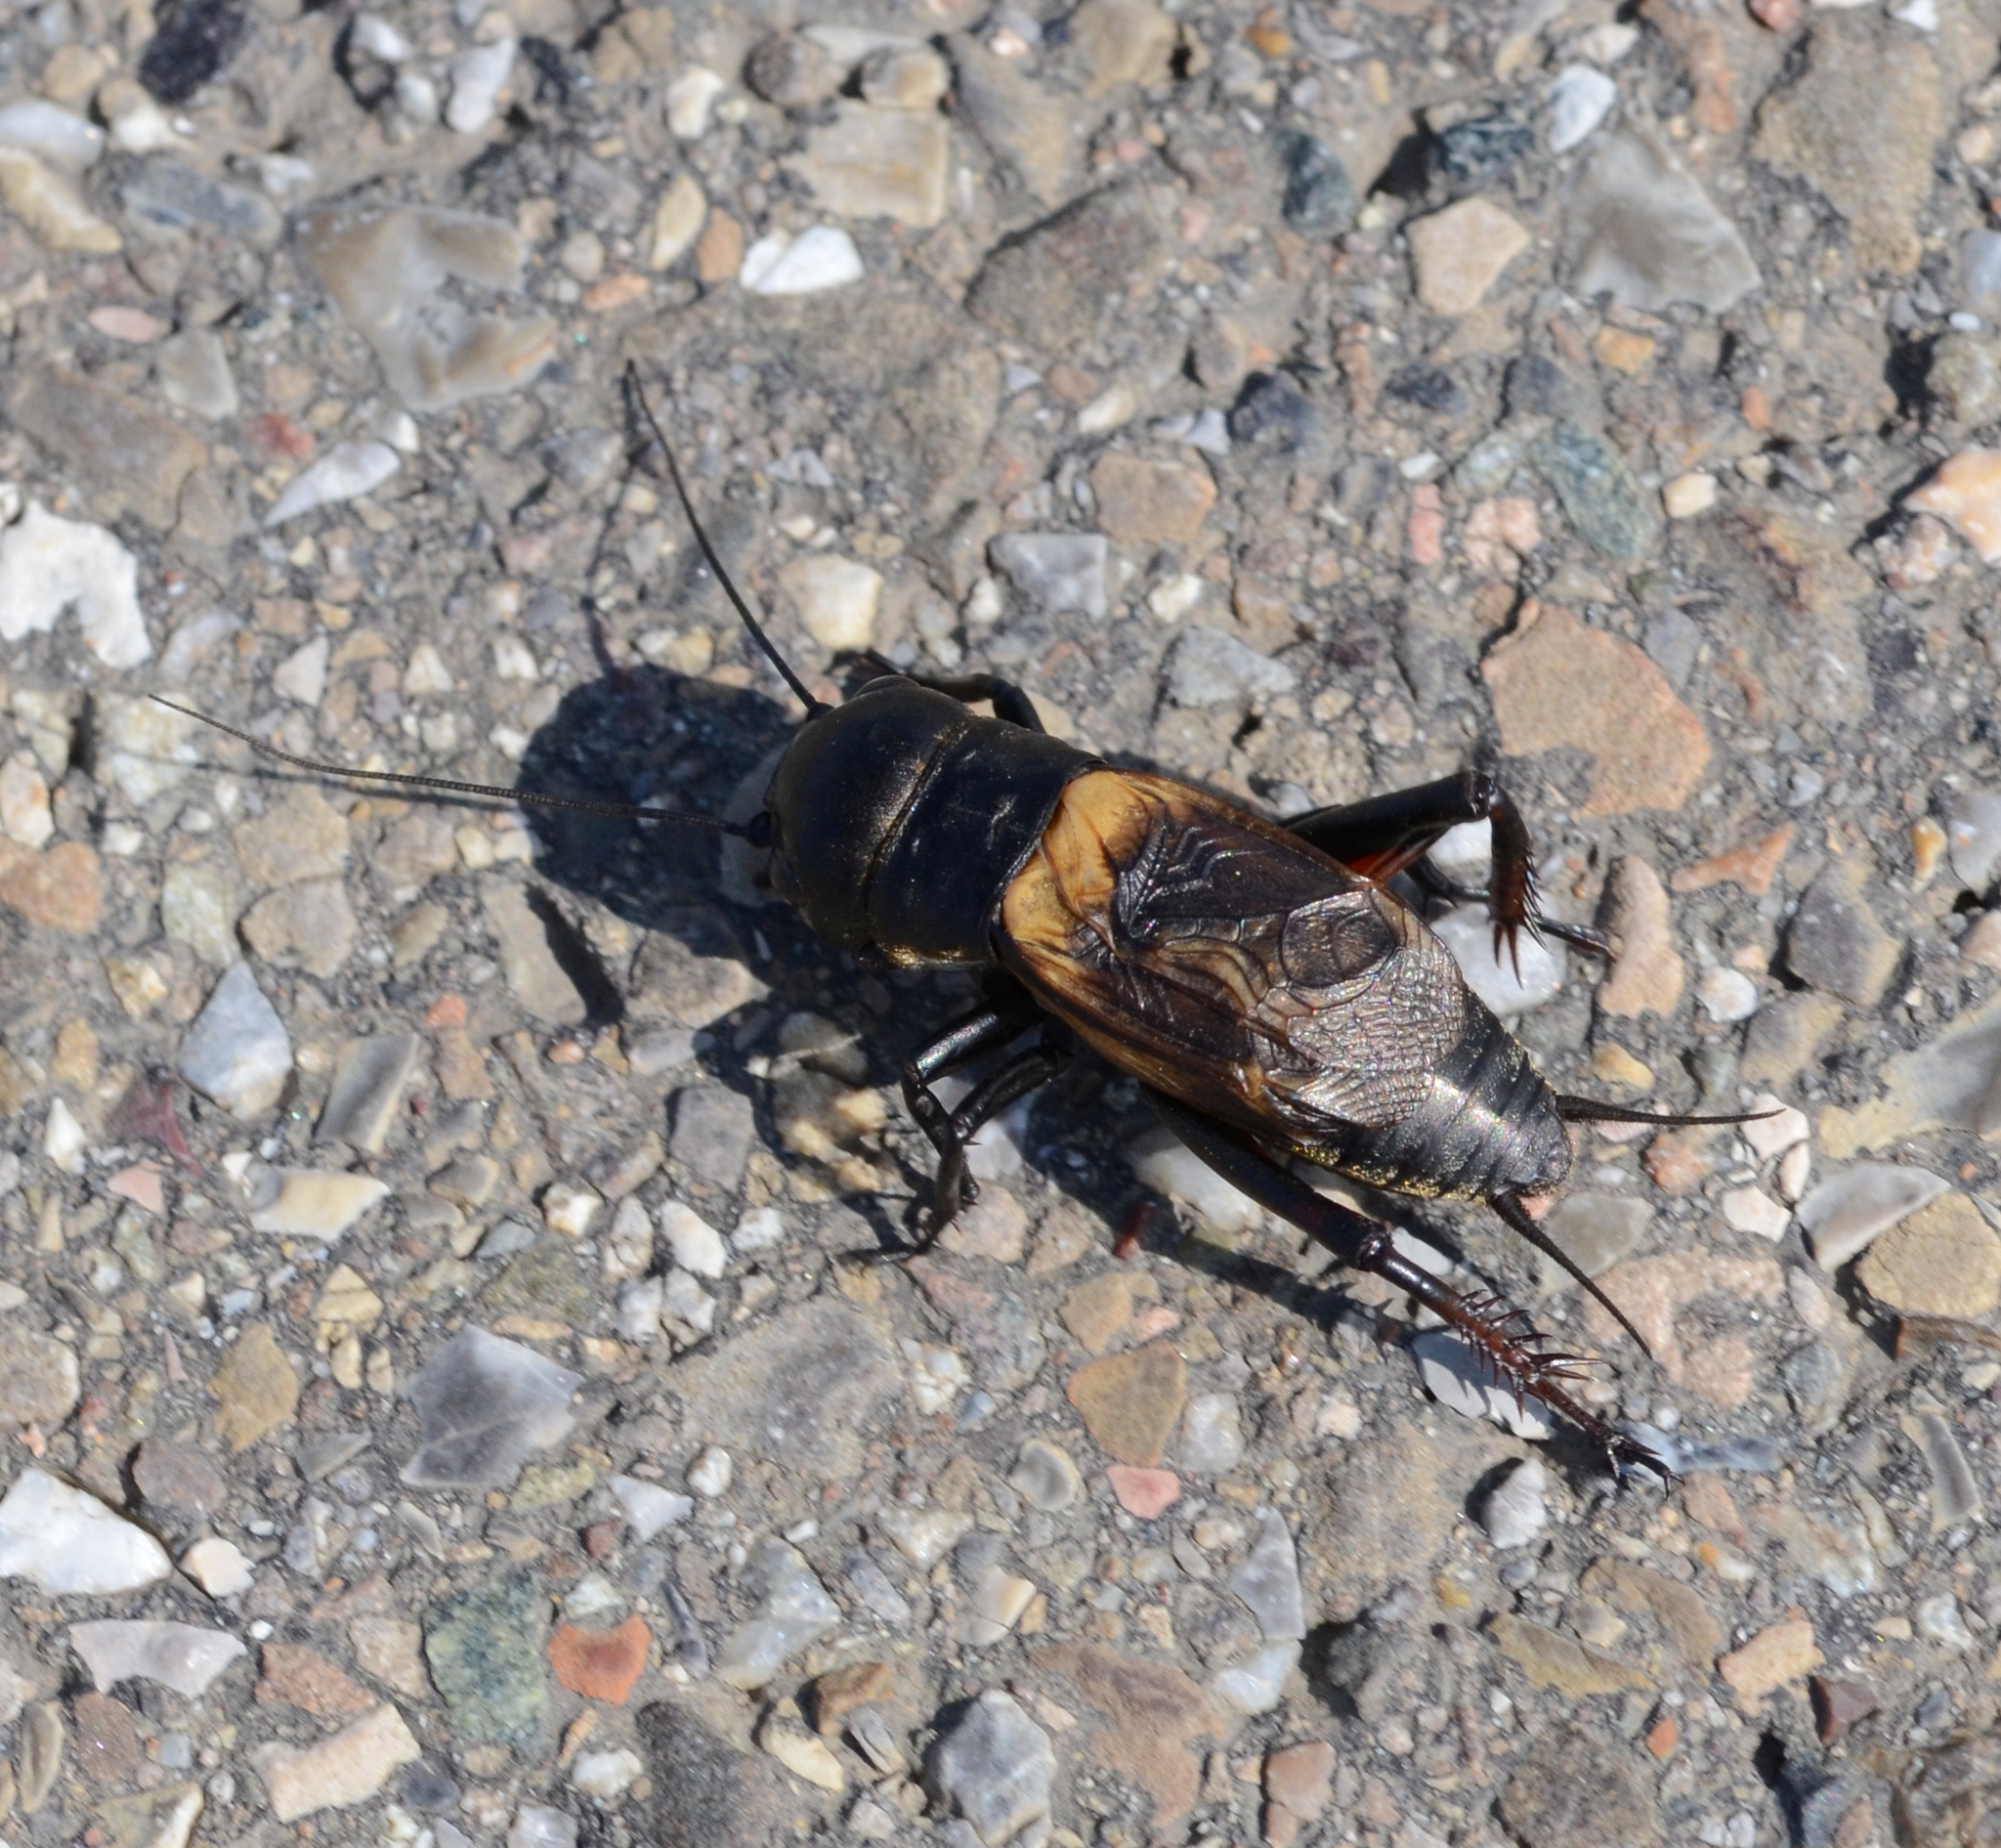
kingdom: Animalia
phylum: Arthropoda
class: Insecta
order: Orthoptera
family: Gryllidae
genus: Gryllus
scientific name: Gryllus campestris
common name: Field cricket
